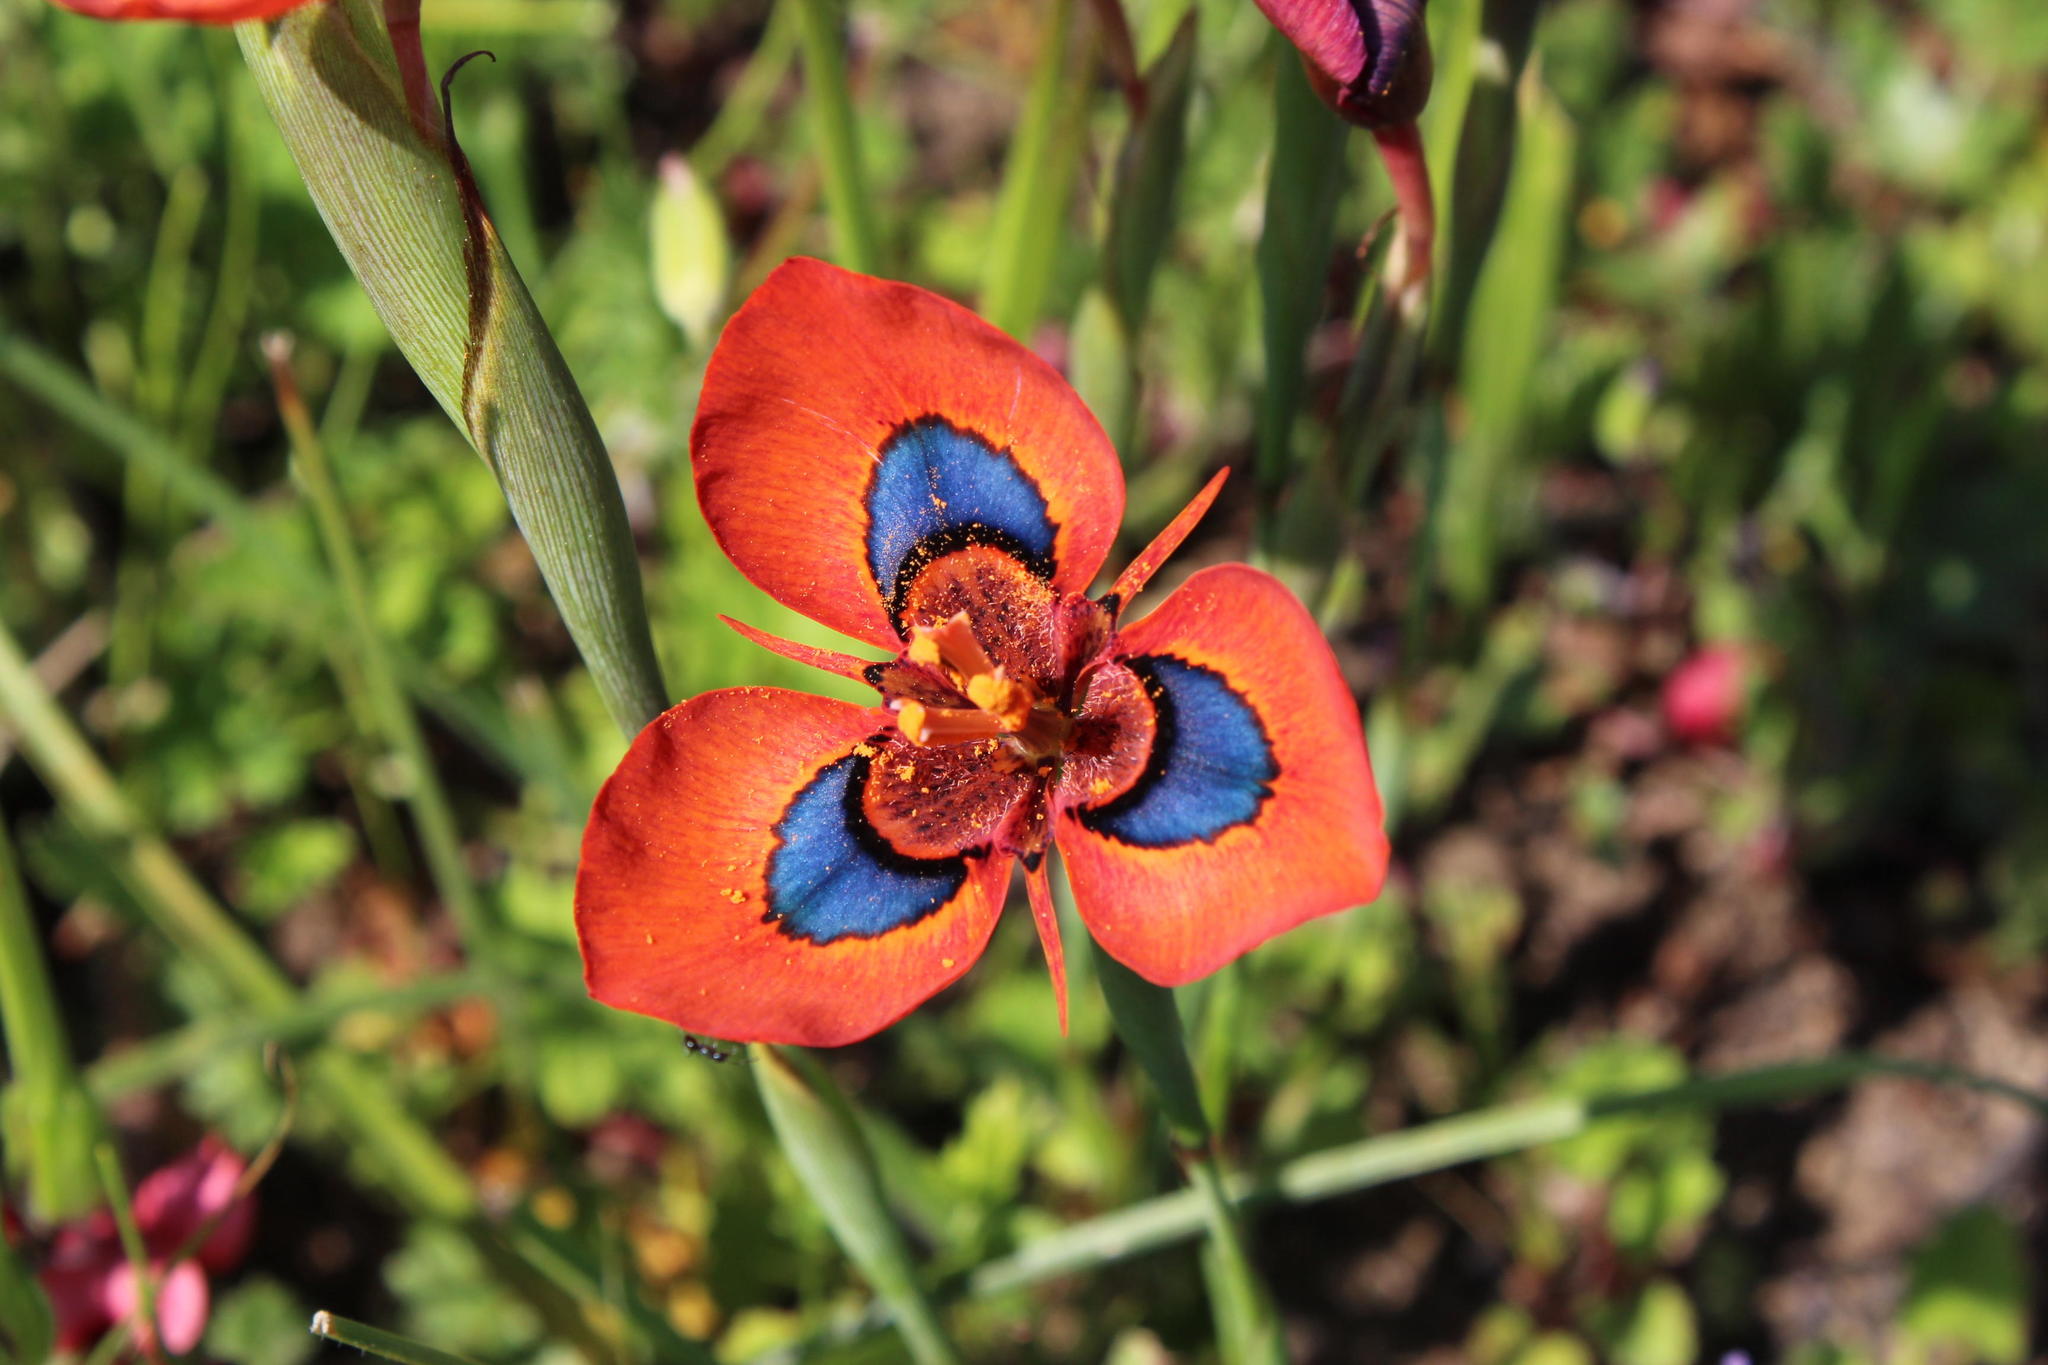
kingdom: Plantae
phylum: Tracheophyta
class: Liliopsida
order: Asparagales
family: Iridaceae
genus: Moraea
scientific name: Moraea tulbaghensis
